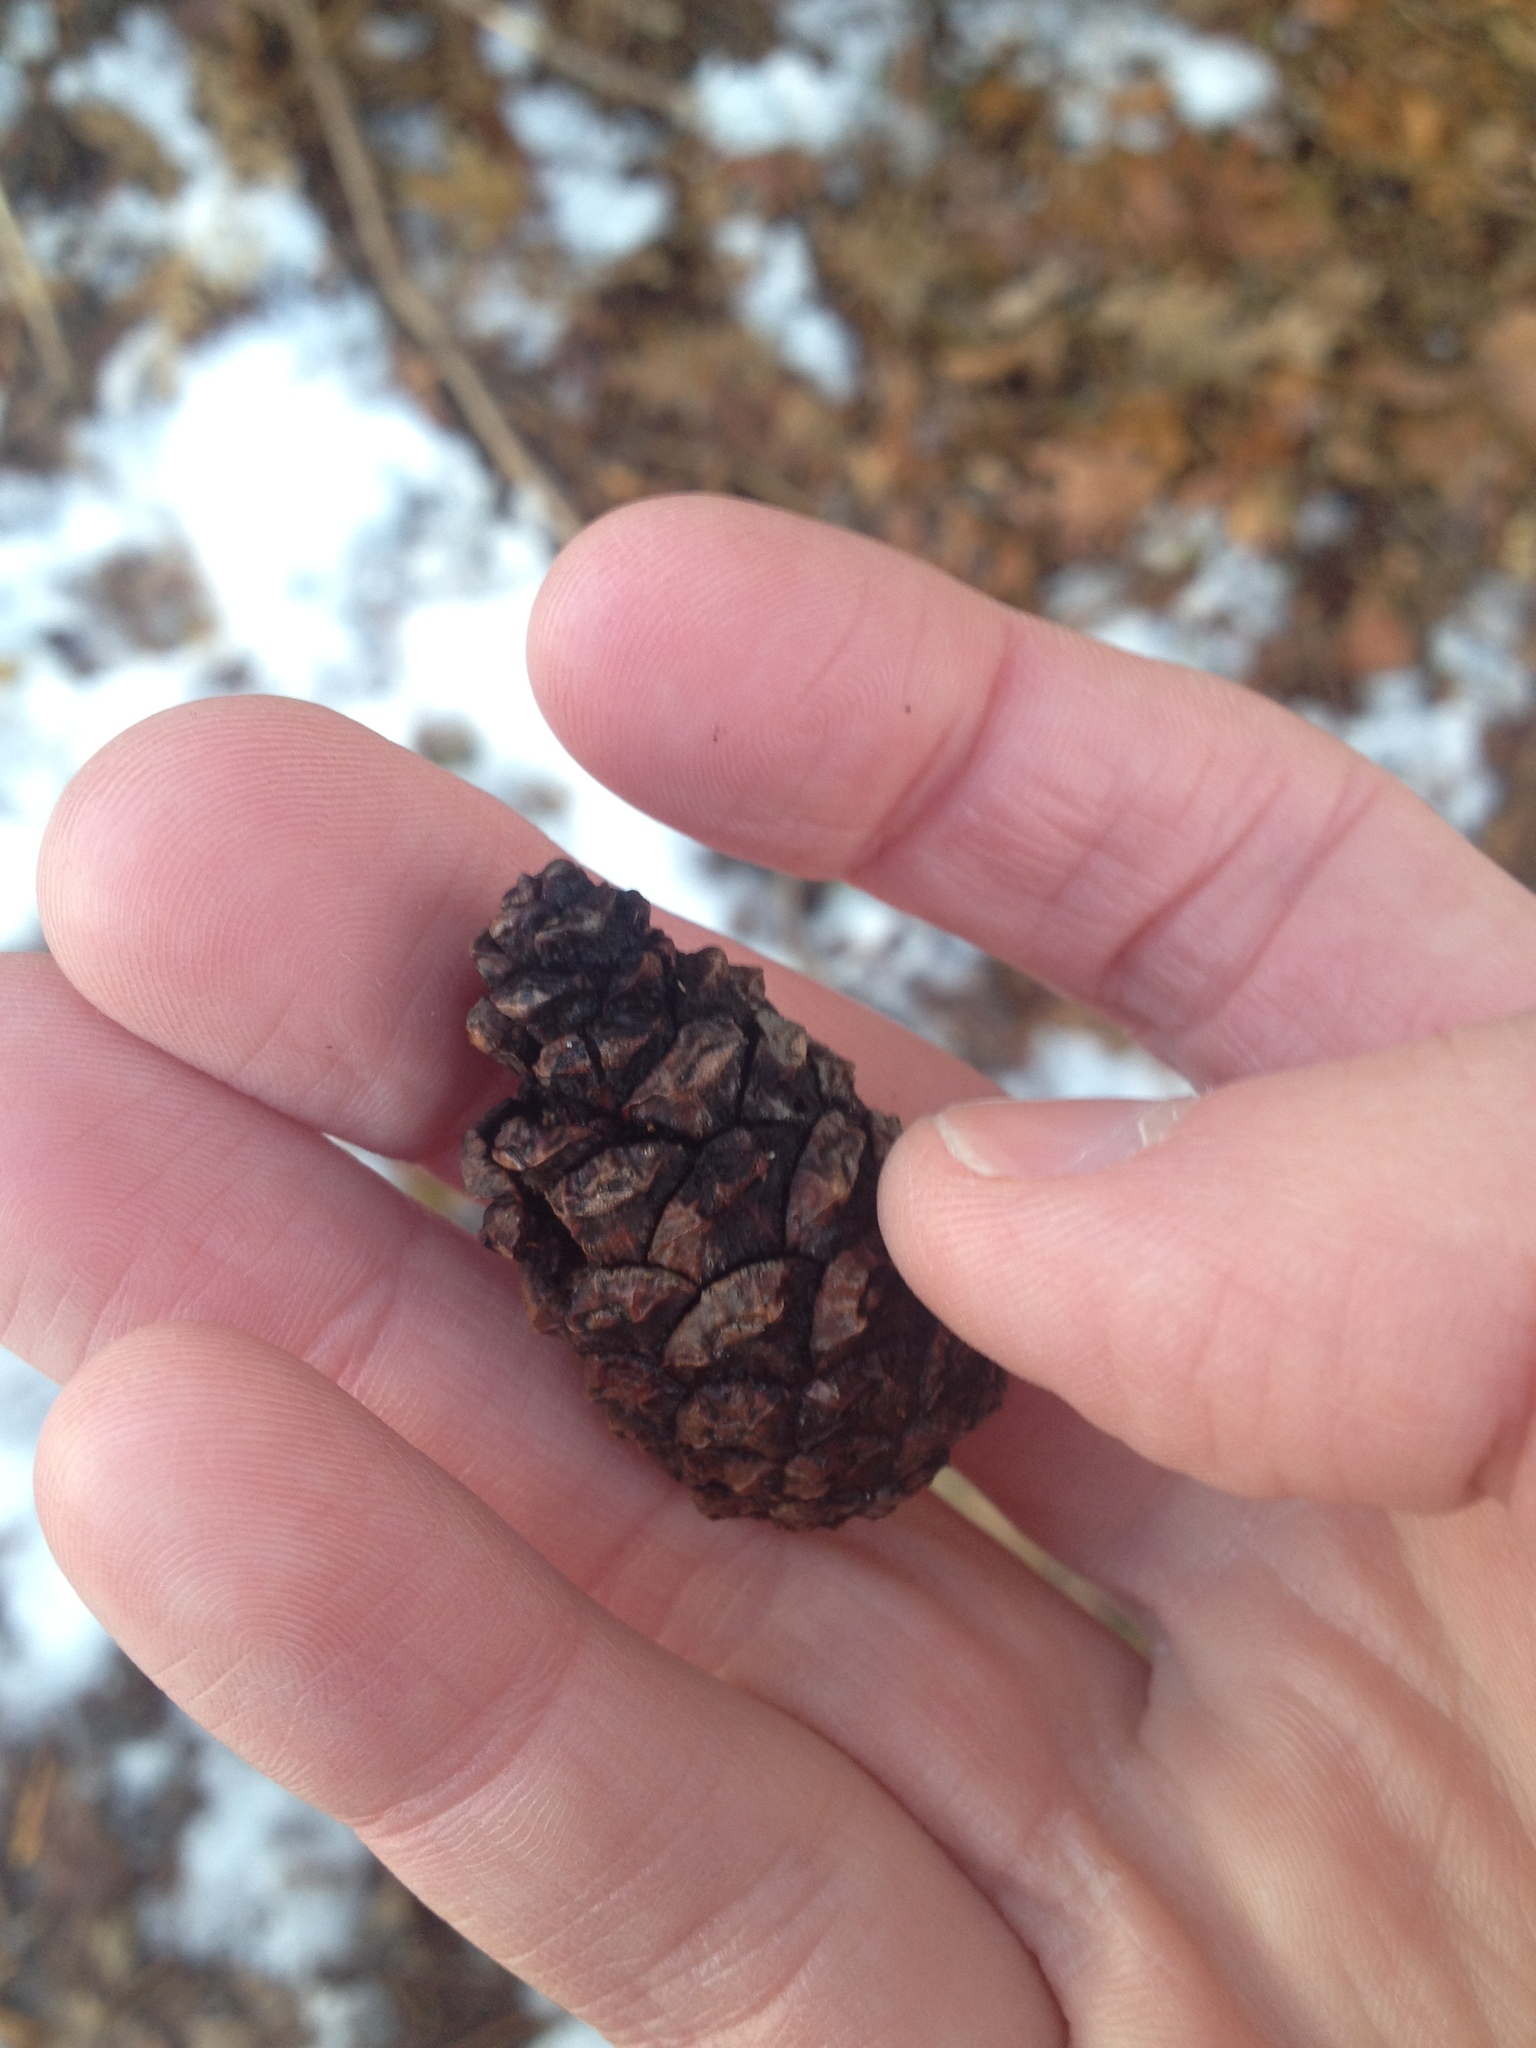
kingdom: Plantae
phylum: Tracheophyta
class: Pinopsida
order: Pinales
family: Pinaceae
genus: Pinus
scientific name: Pinus resinosa
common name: Norway pine
